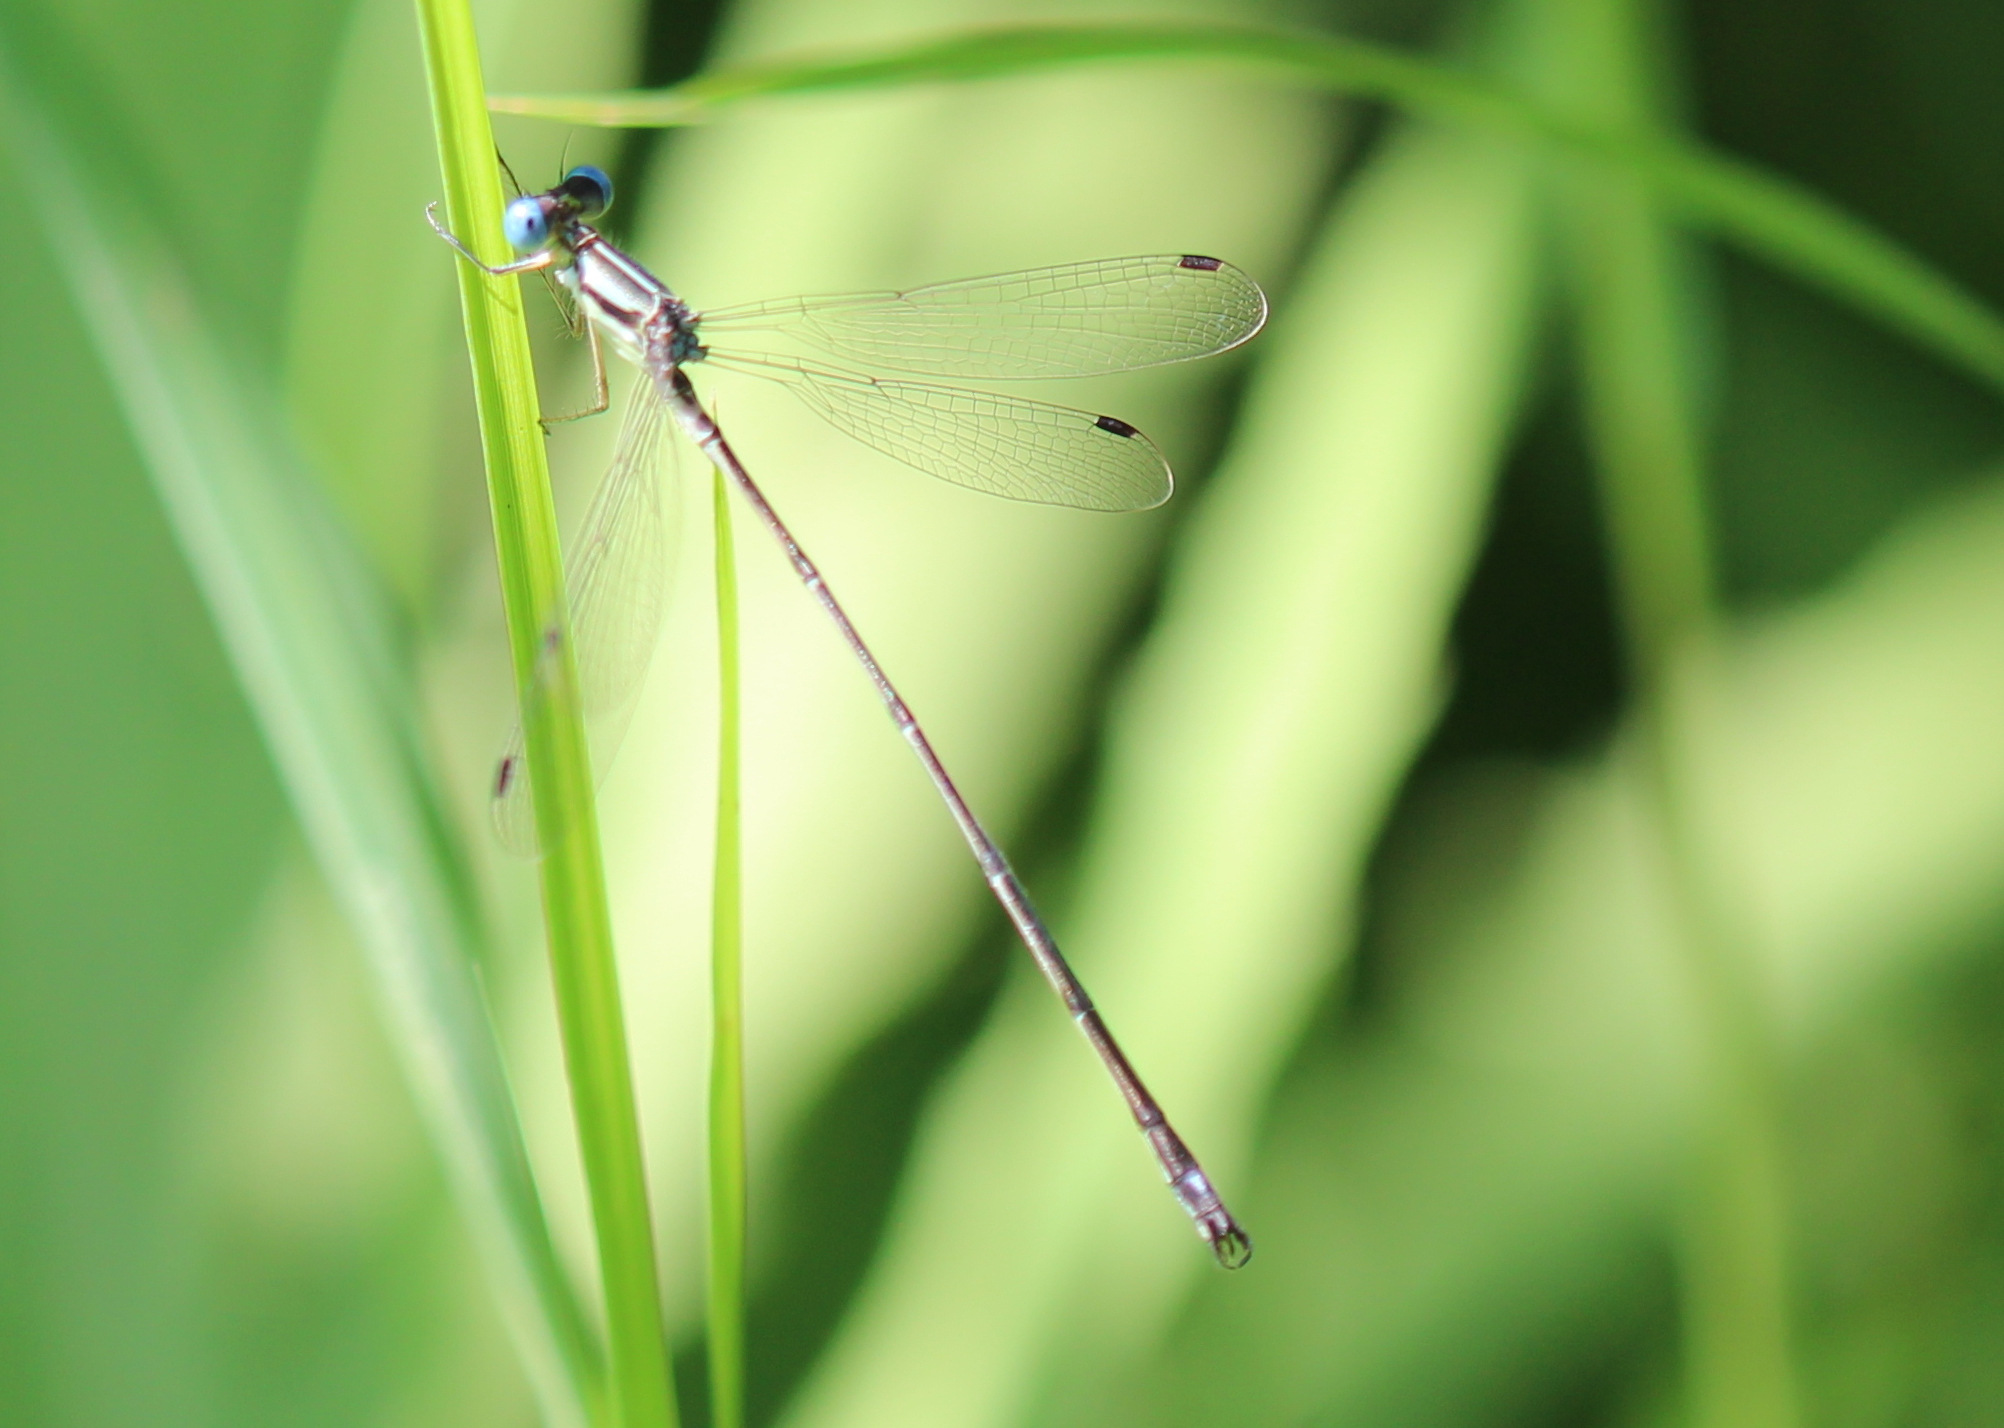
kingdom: Animalia
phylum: Arthropoda
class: Insecta
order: Odonata
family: Lestidae
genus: Lestes
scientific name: Lestes rectangularis
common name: Slender spreadwing
